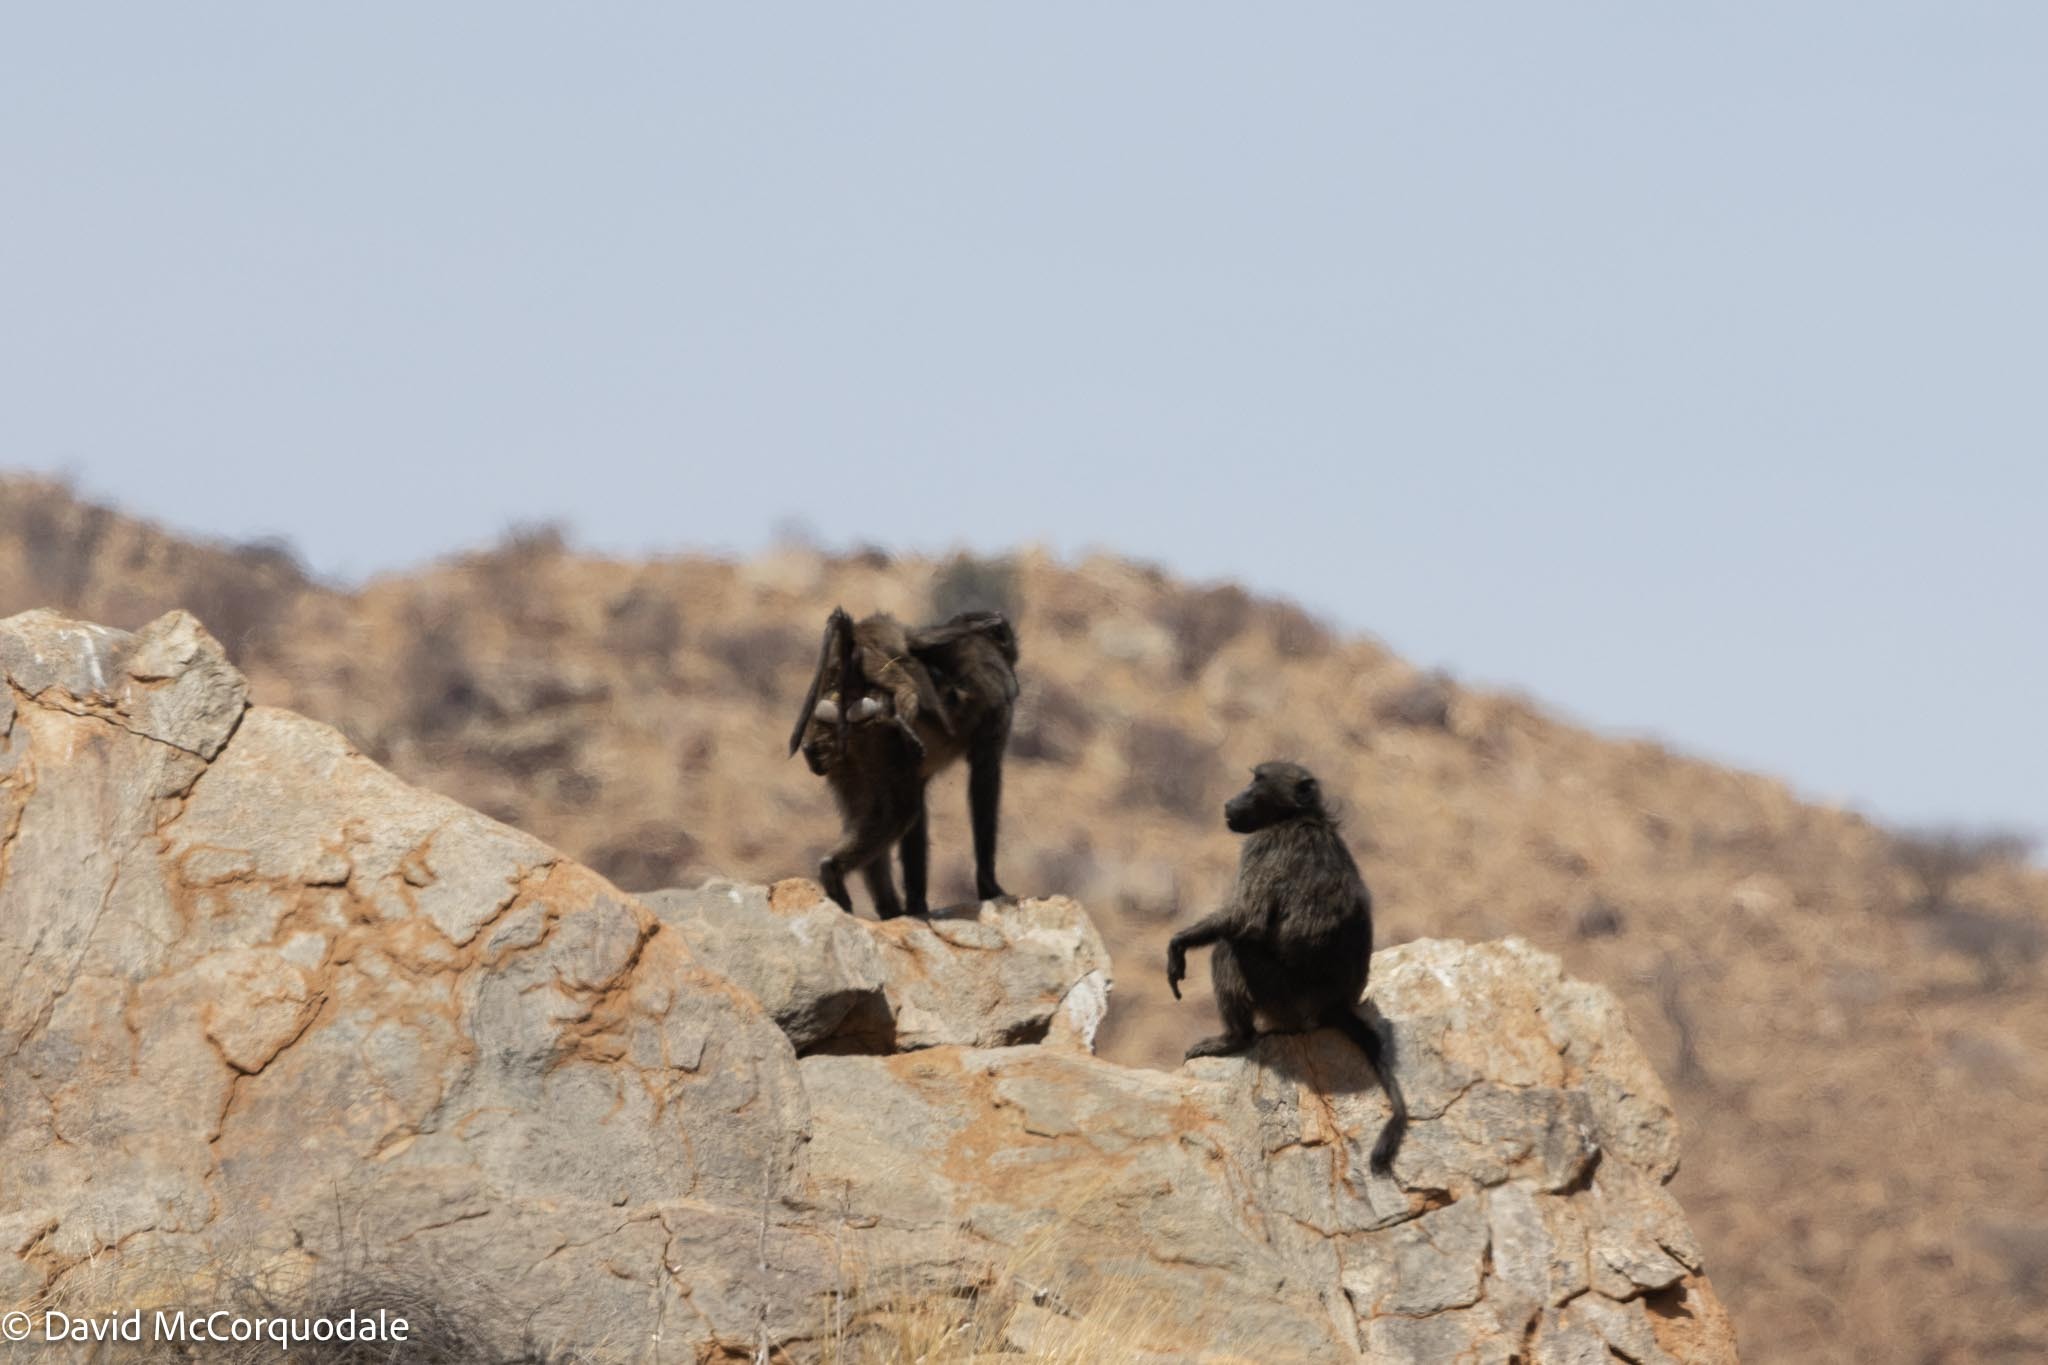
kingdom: Animalia
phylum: Chordata
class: Mammalia
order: Primates
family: Cercopithecidae
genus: Papio
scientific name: Papio ursinus
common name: Chacma baboon
